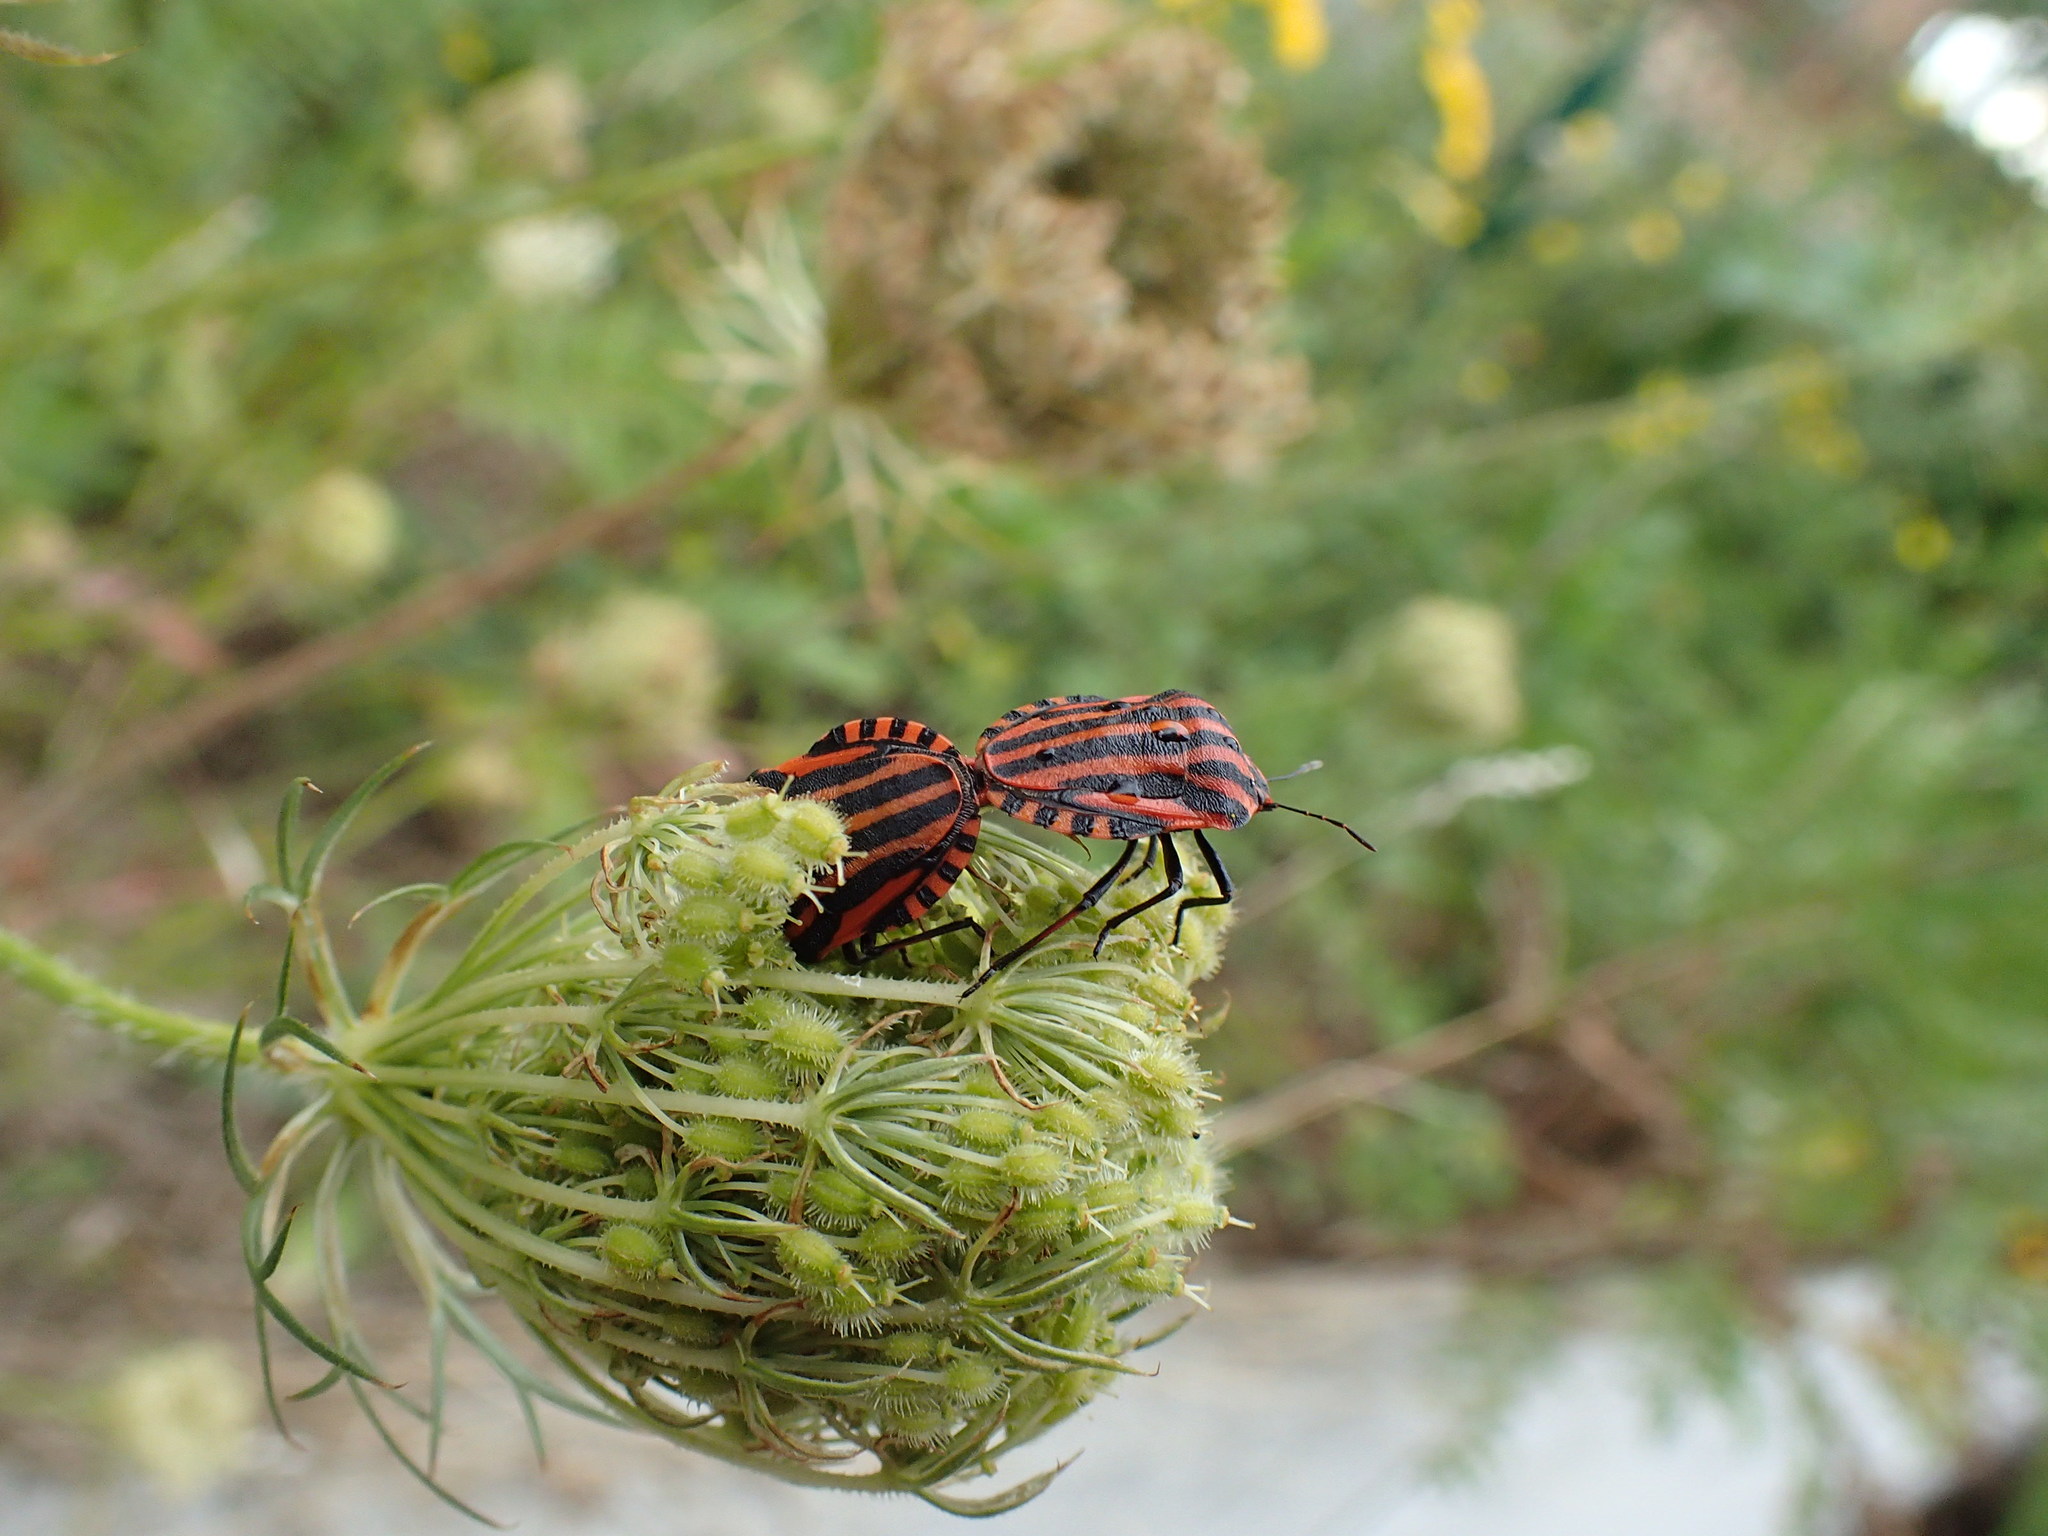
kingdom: Animalia
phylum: Arthropoda
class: Insecta
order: Hemiptera
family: Pentatomidae
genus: Graphosoma
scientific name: Graphosoma italicum
